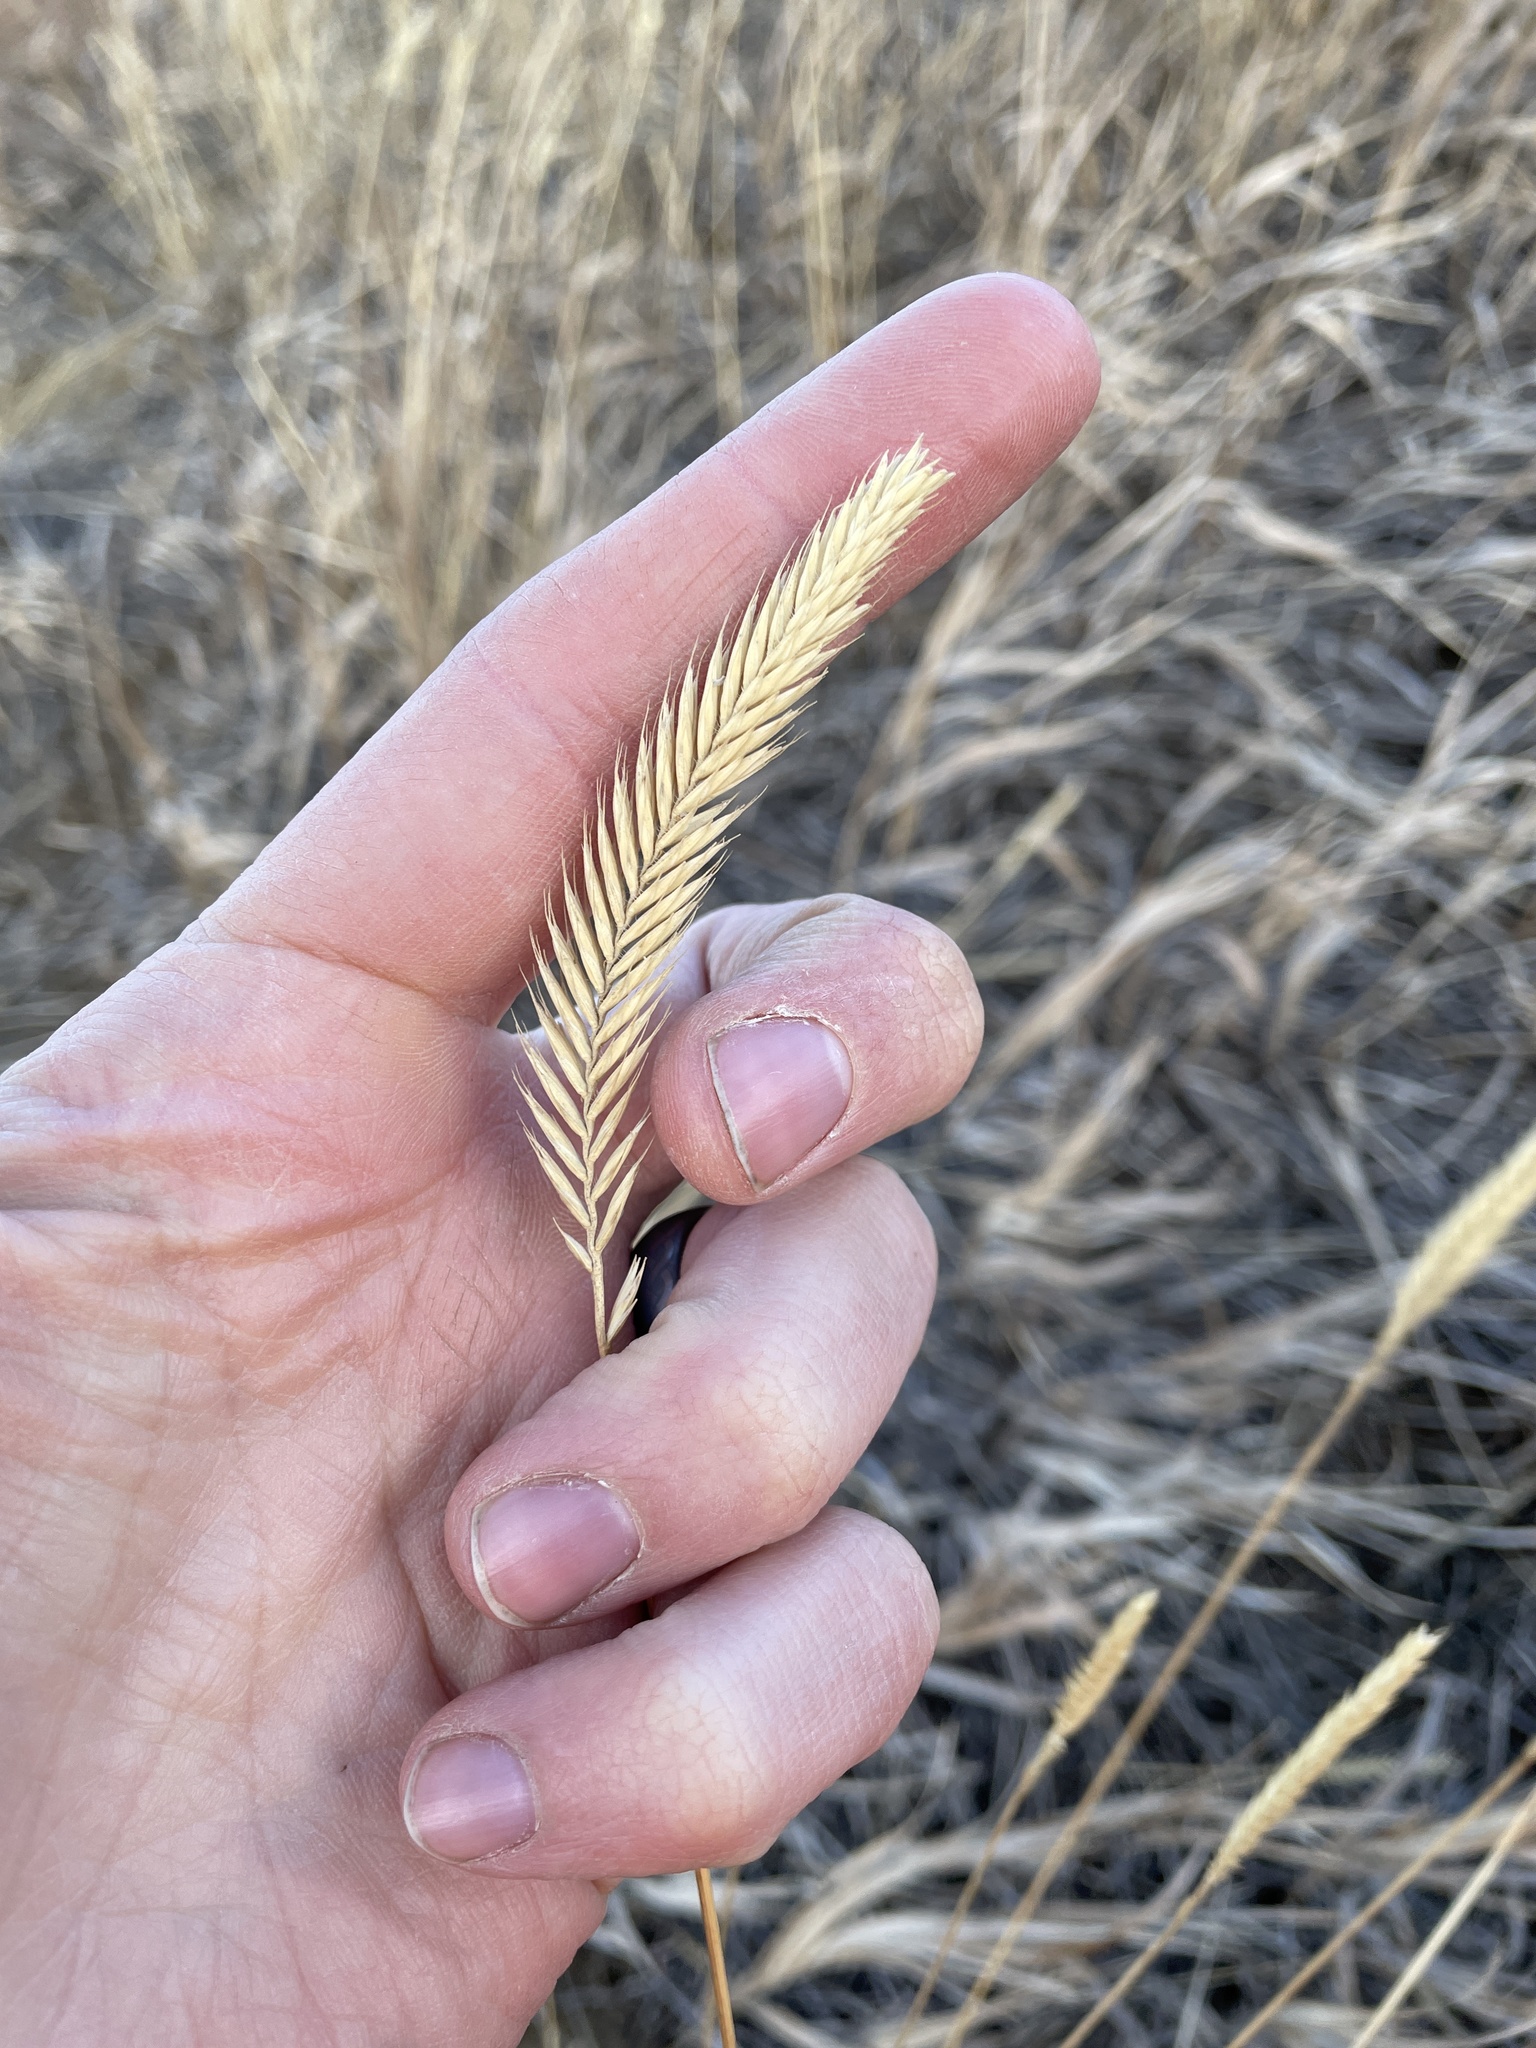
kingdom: Plantae
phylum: Tracheophyta
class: Liliopsida
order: Poales
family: Poaceae
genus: Agropyron
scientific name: Agropyron cristatum
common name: Crested wheatgrass
